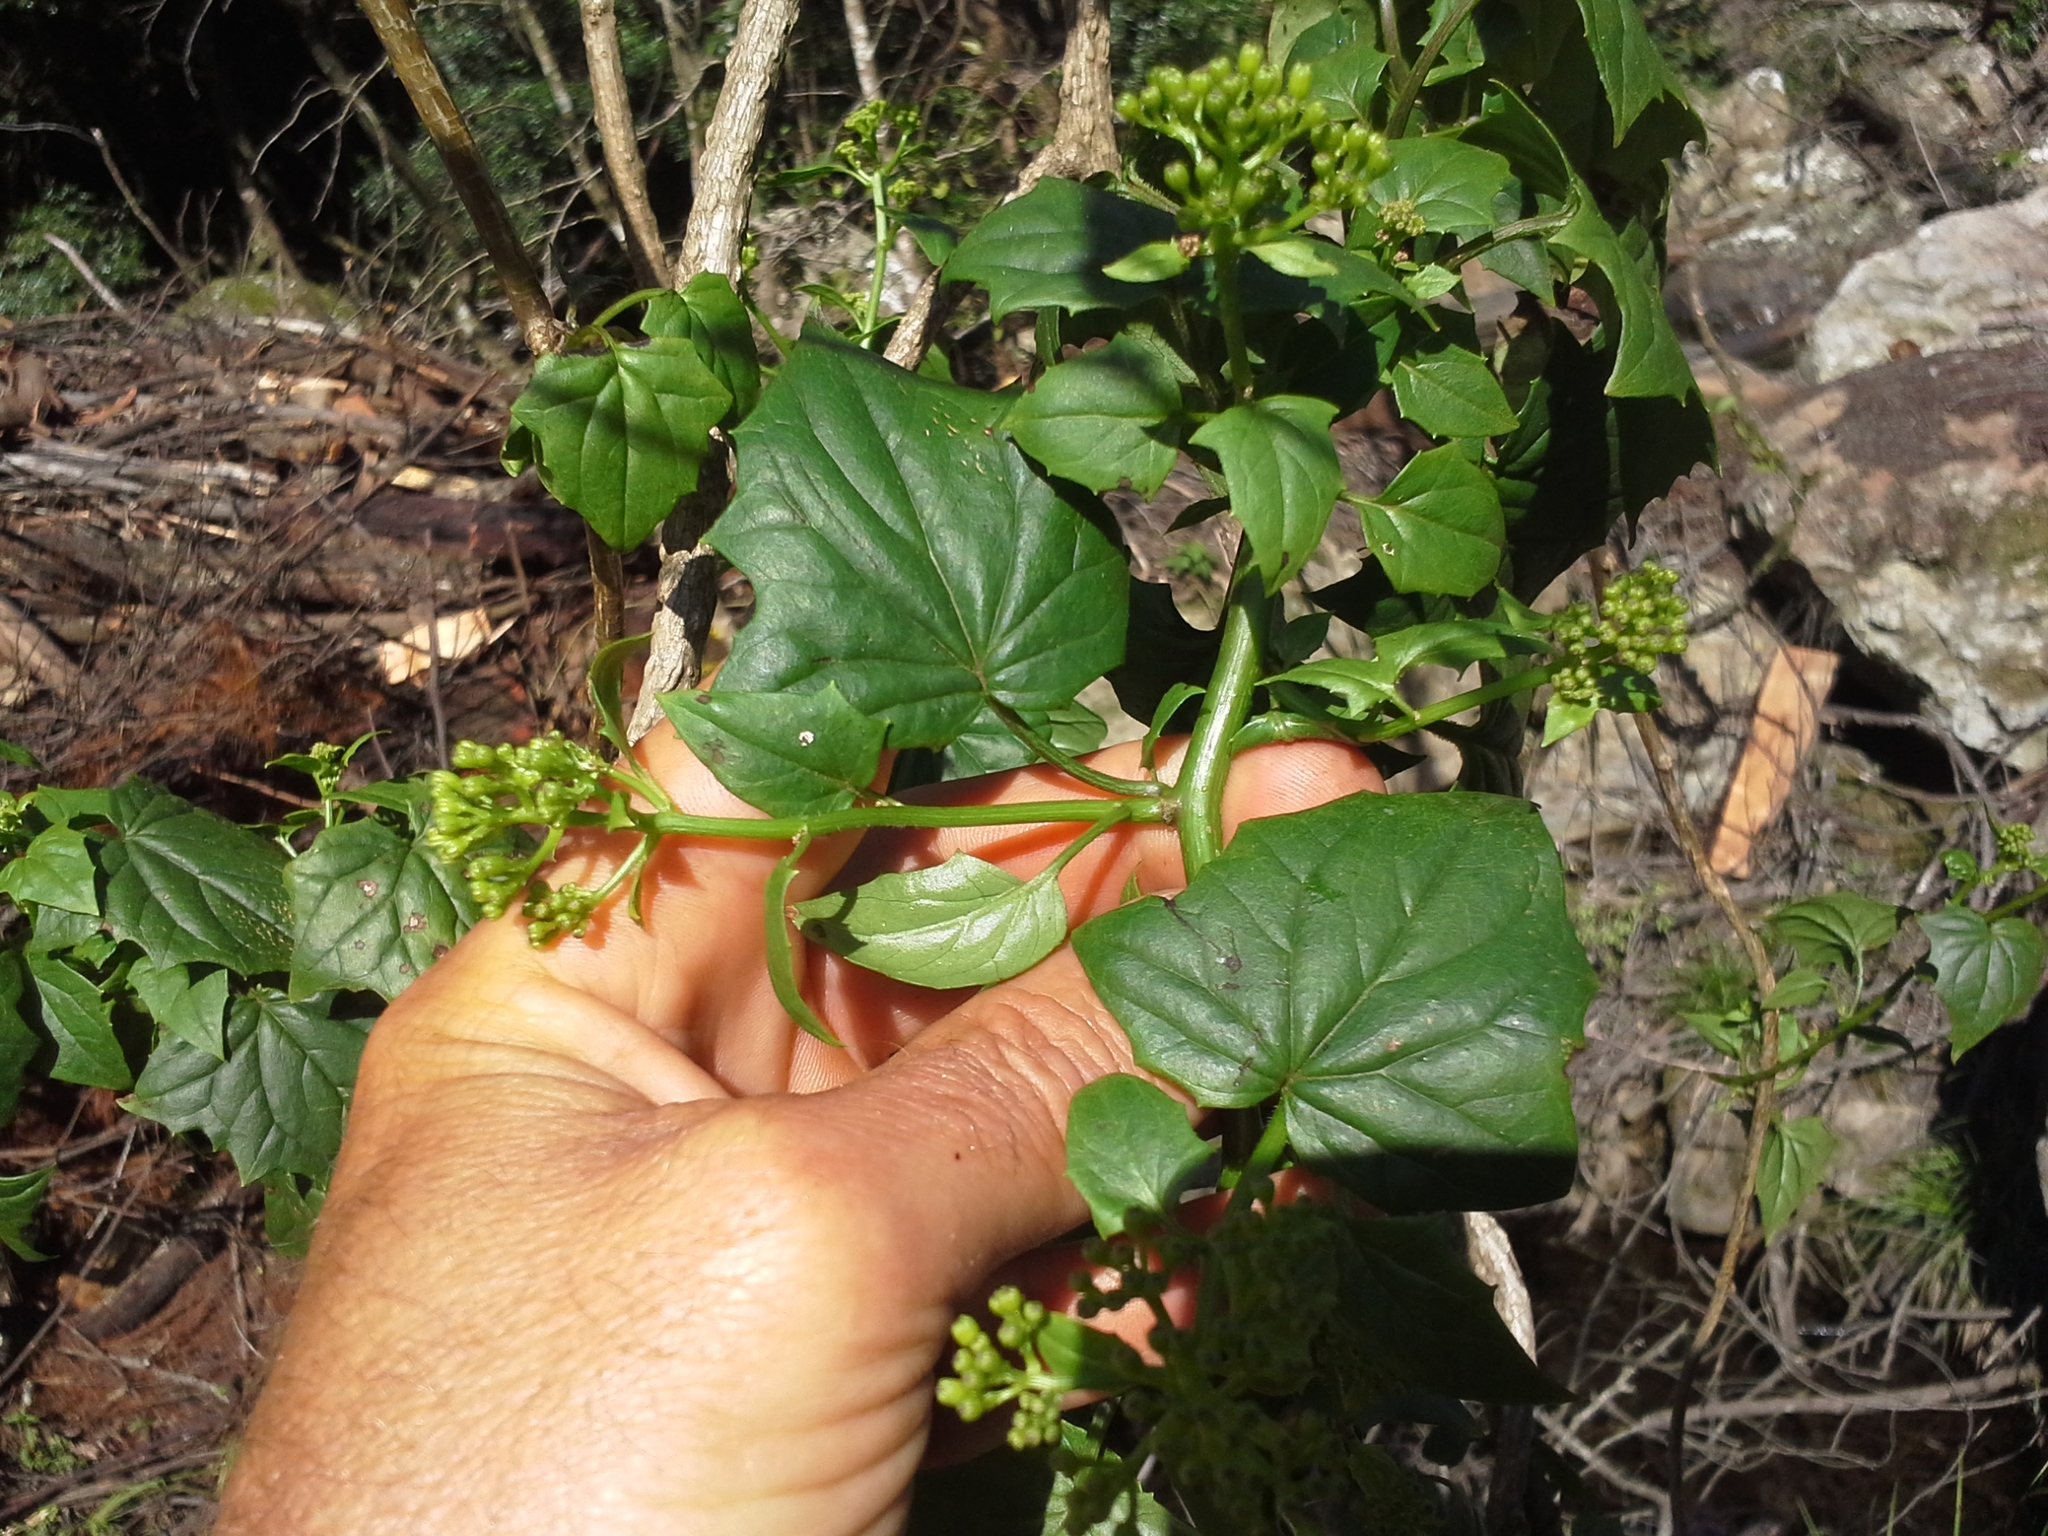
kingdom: Plantae
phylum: Tracheophyta
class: Magnoliopsida
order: Asterales
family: Asteraceae
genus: Senecio
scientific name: Senecio tamoides
